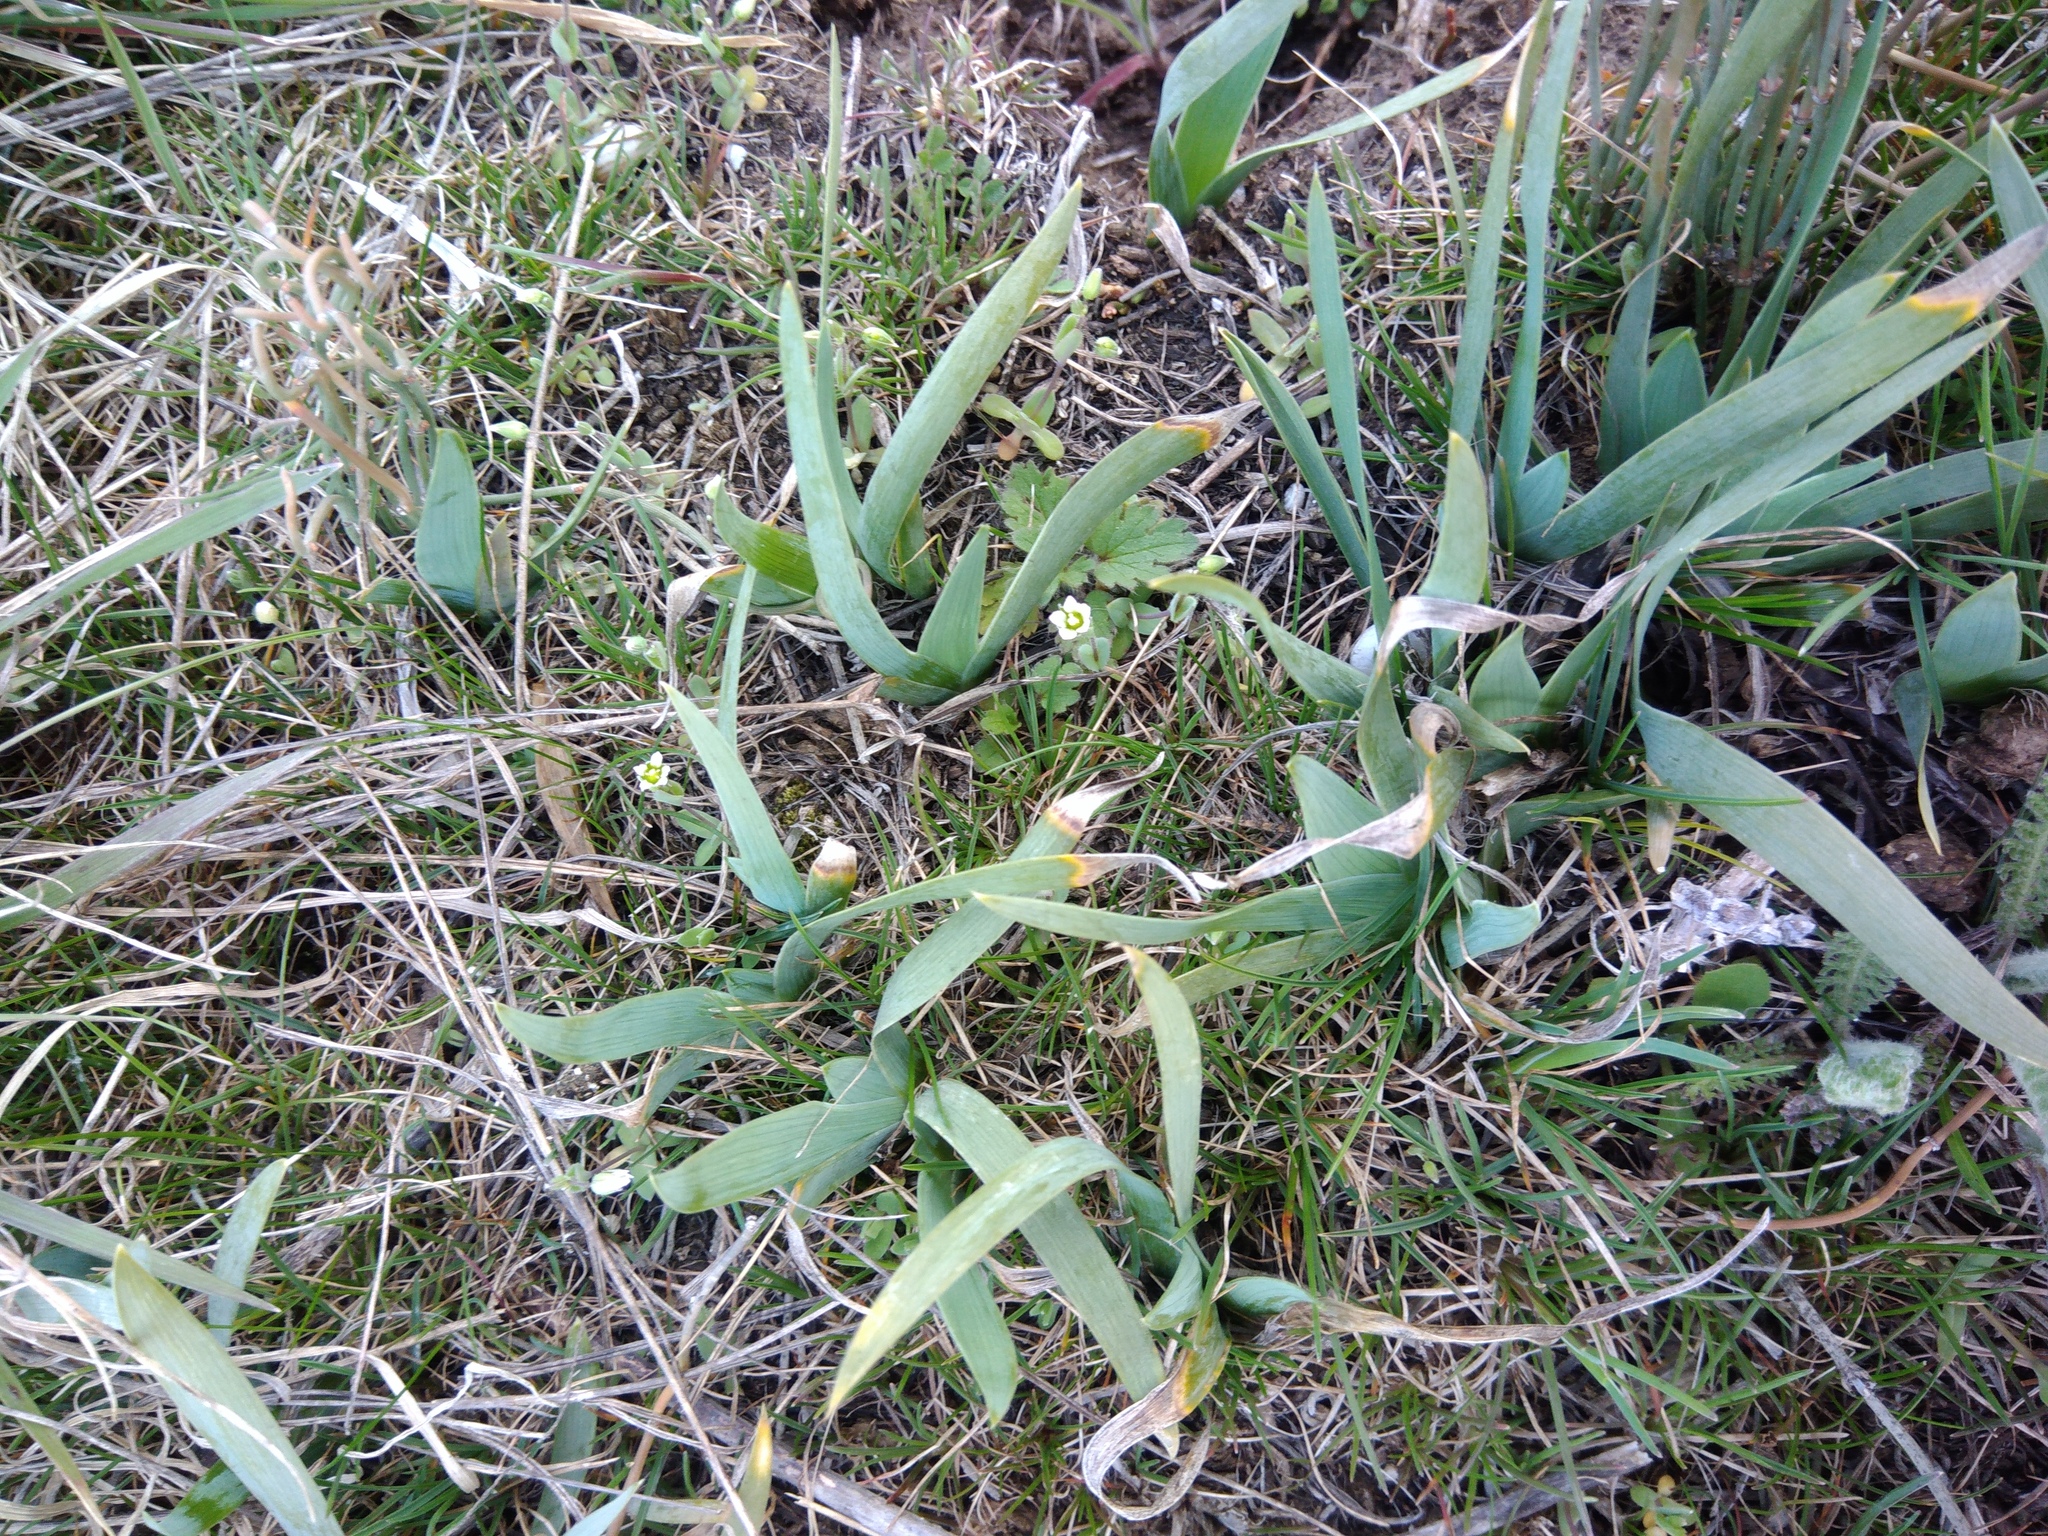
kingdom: Plantae
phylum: Tracheophyta
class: Liliopsida
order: Asparagales
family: Iridaceae
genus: Iris
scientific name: Iris pumila
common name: Dwarf iris
